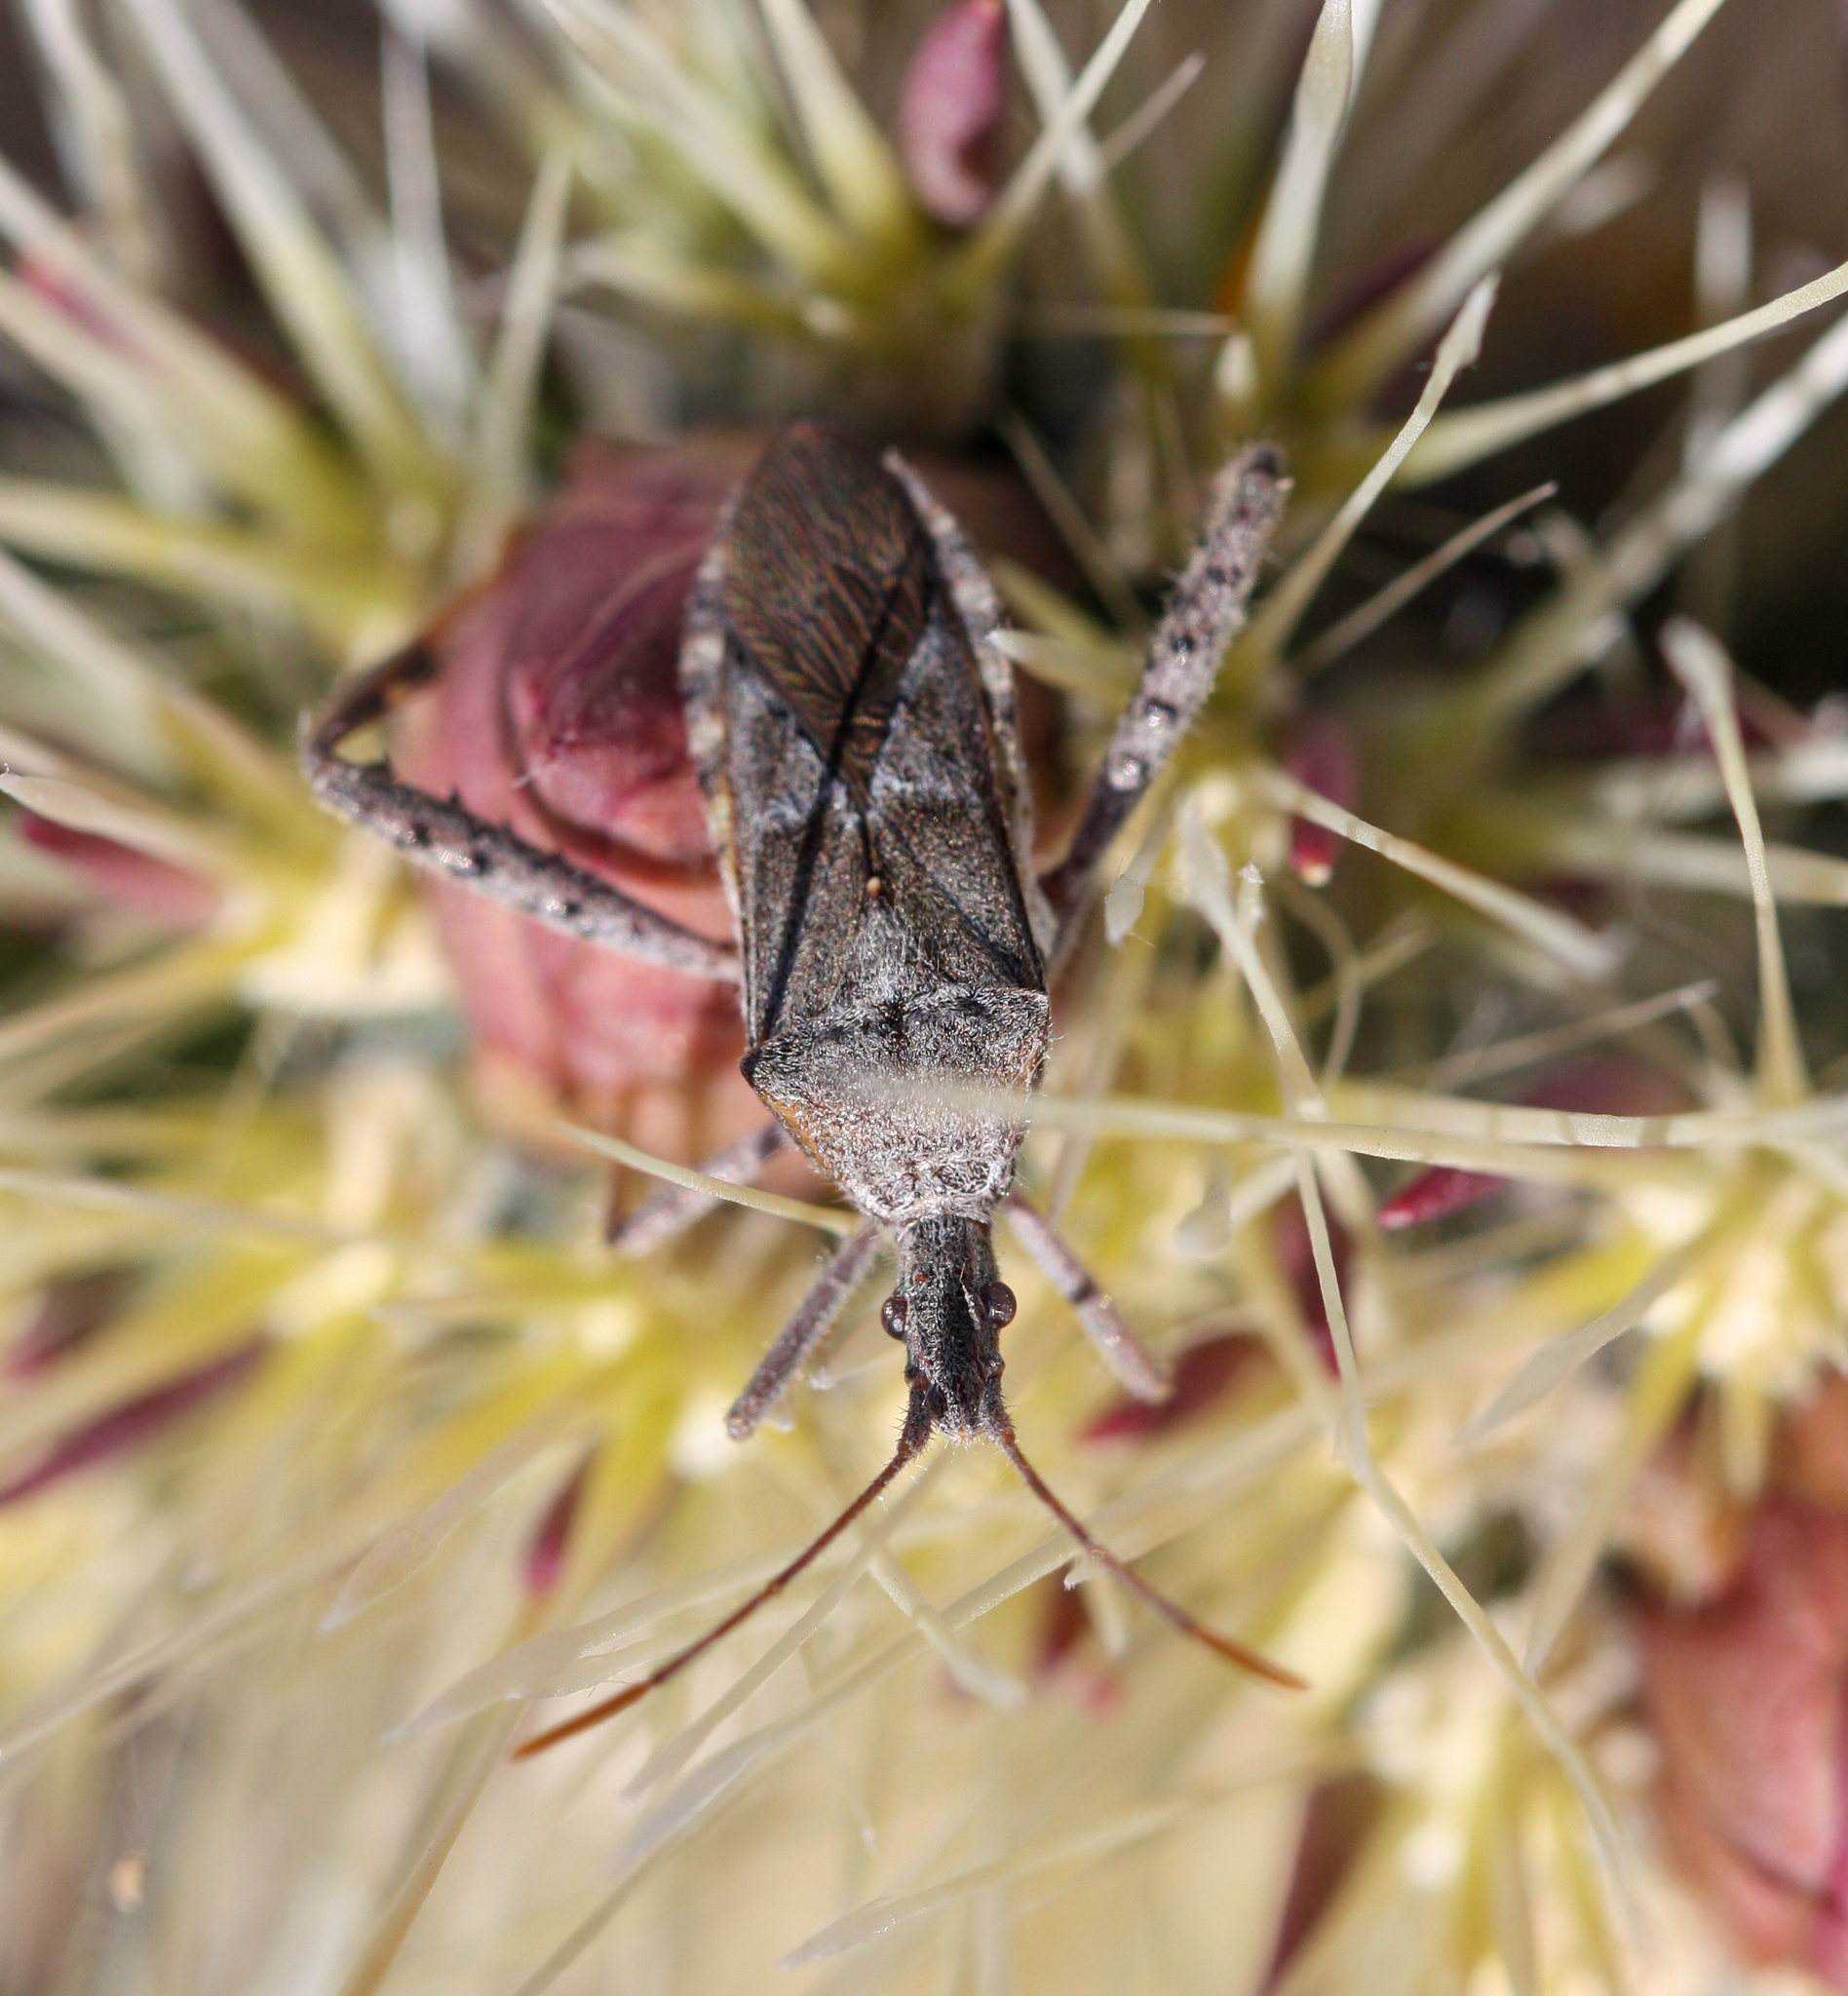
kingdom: Animalia
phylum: Arthropoda
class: Insecta
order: Hemiptera
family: Coreidae
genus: Narnia
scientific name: Narnia femorata
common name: Leaf-footed cactus bug
